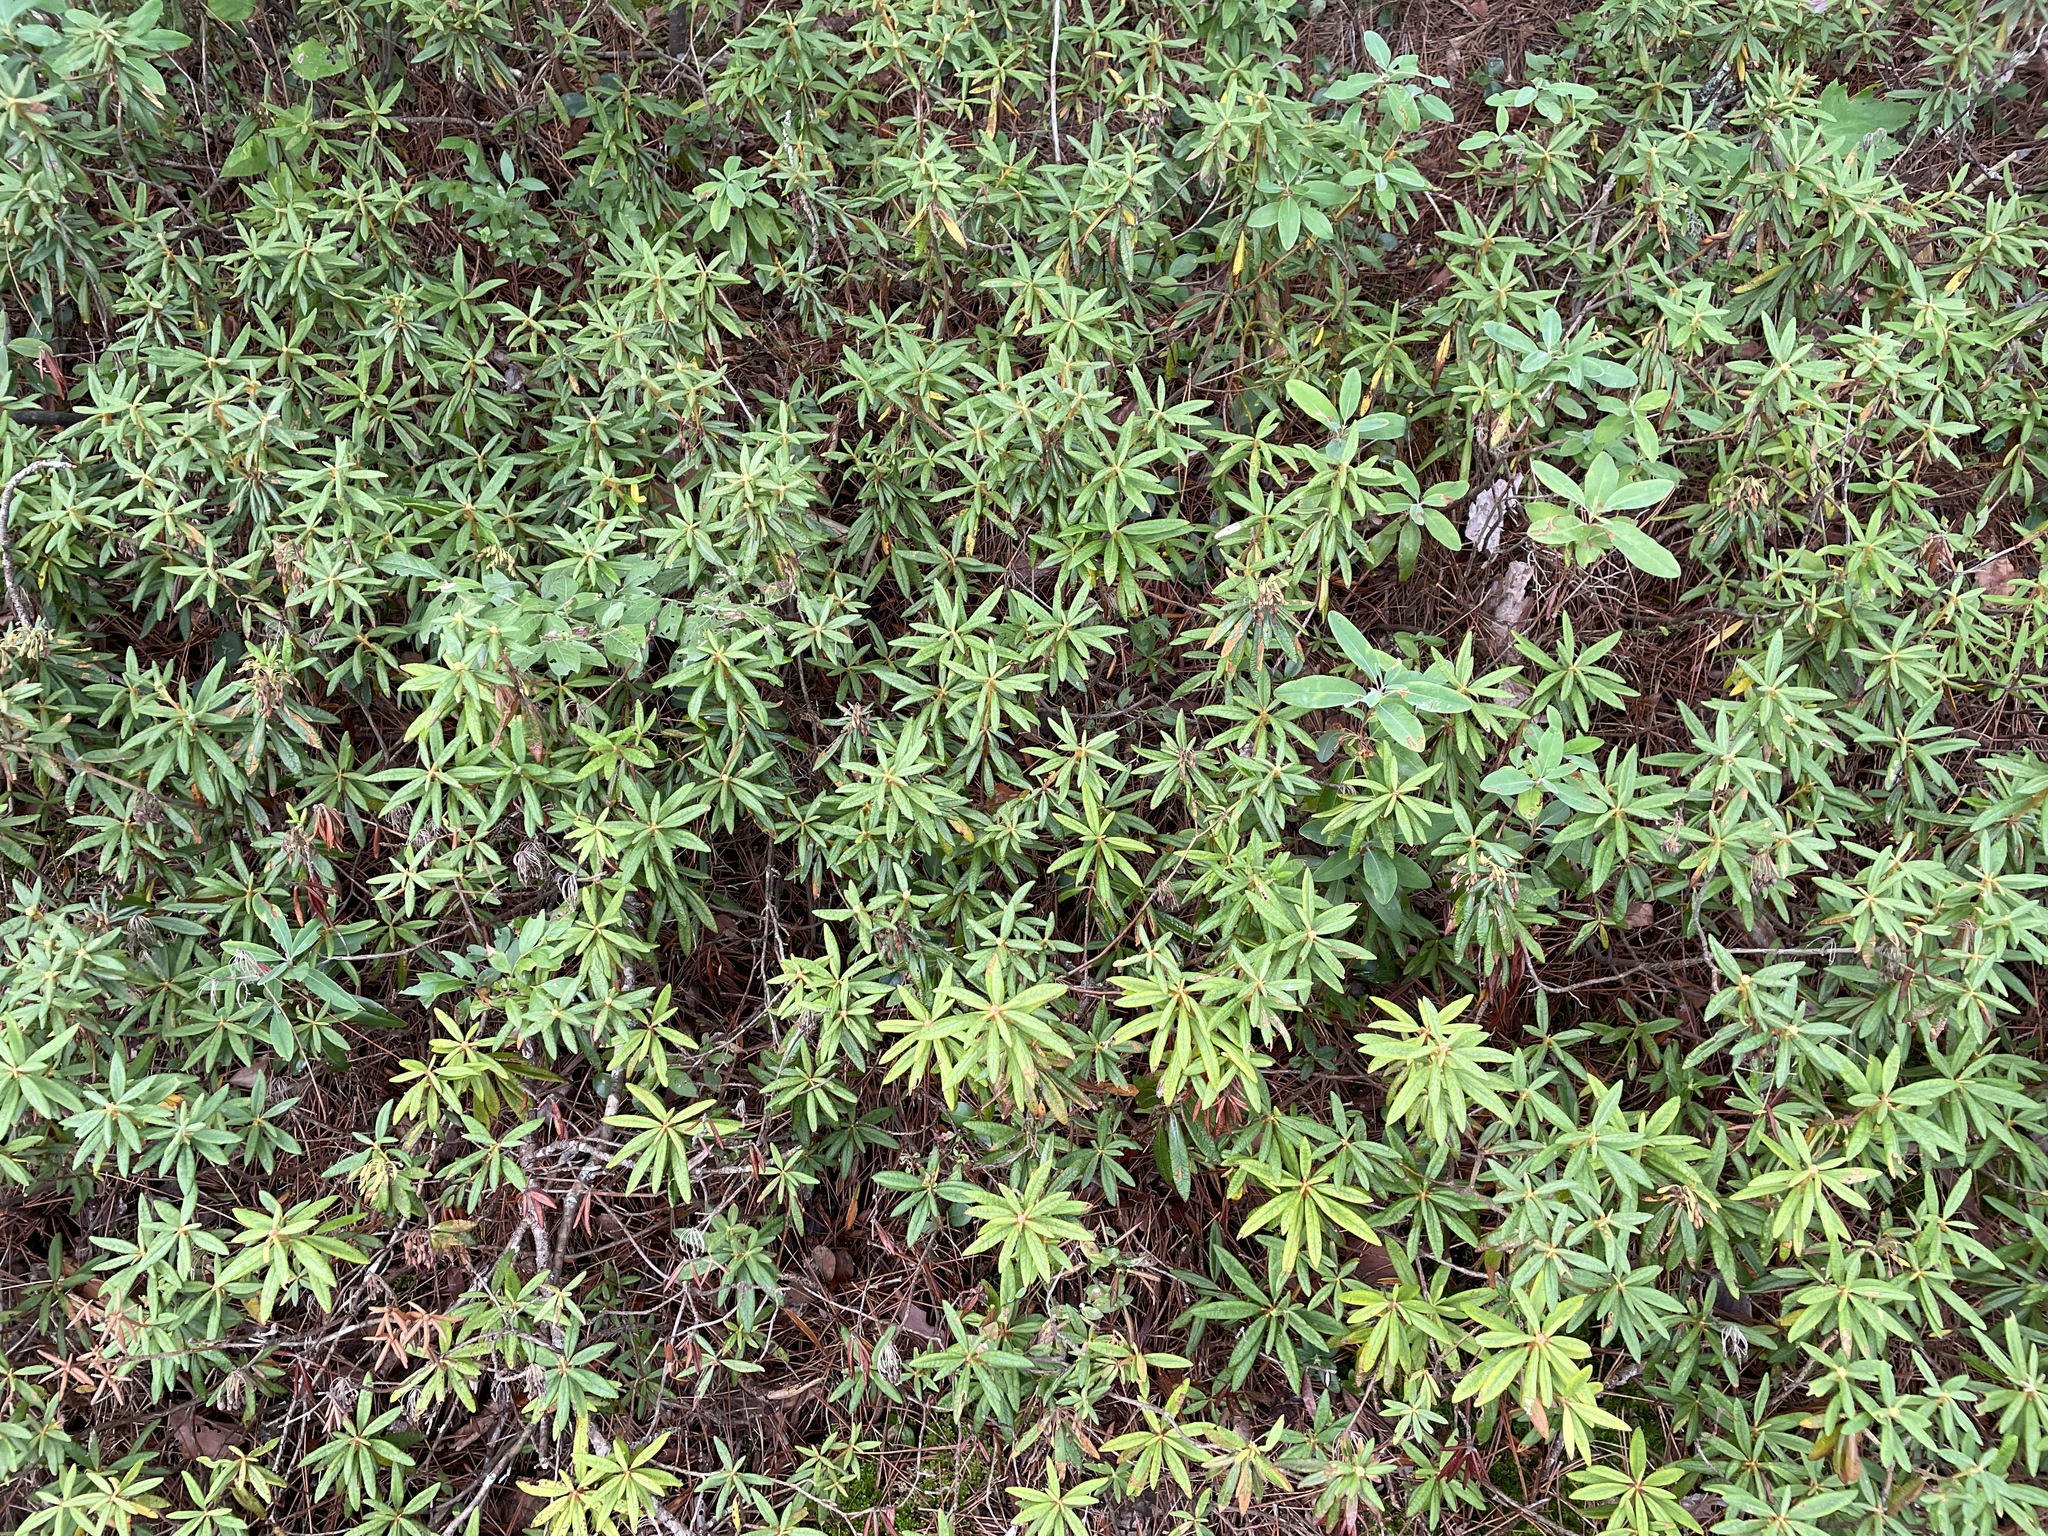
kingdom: Plantae
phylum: Tracheophyta
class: Magnoliopsida
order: Ericales
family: Ericaceae
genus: Rhododendron
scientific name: Rhododendron groenlandicum
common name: Bog labrador tea
